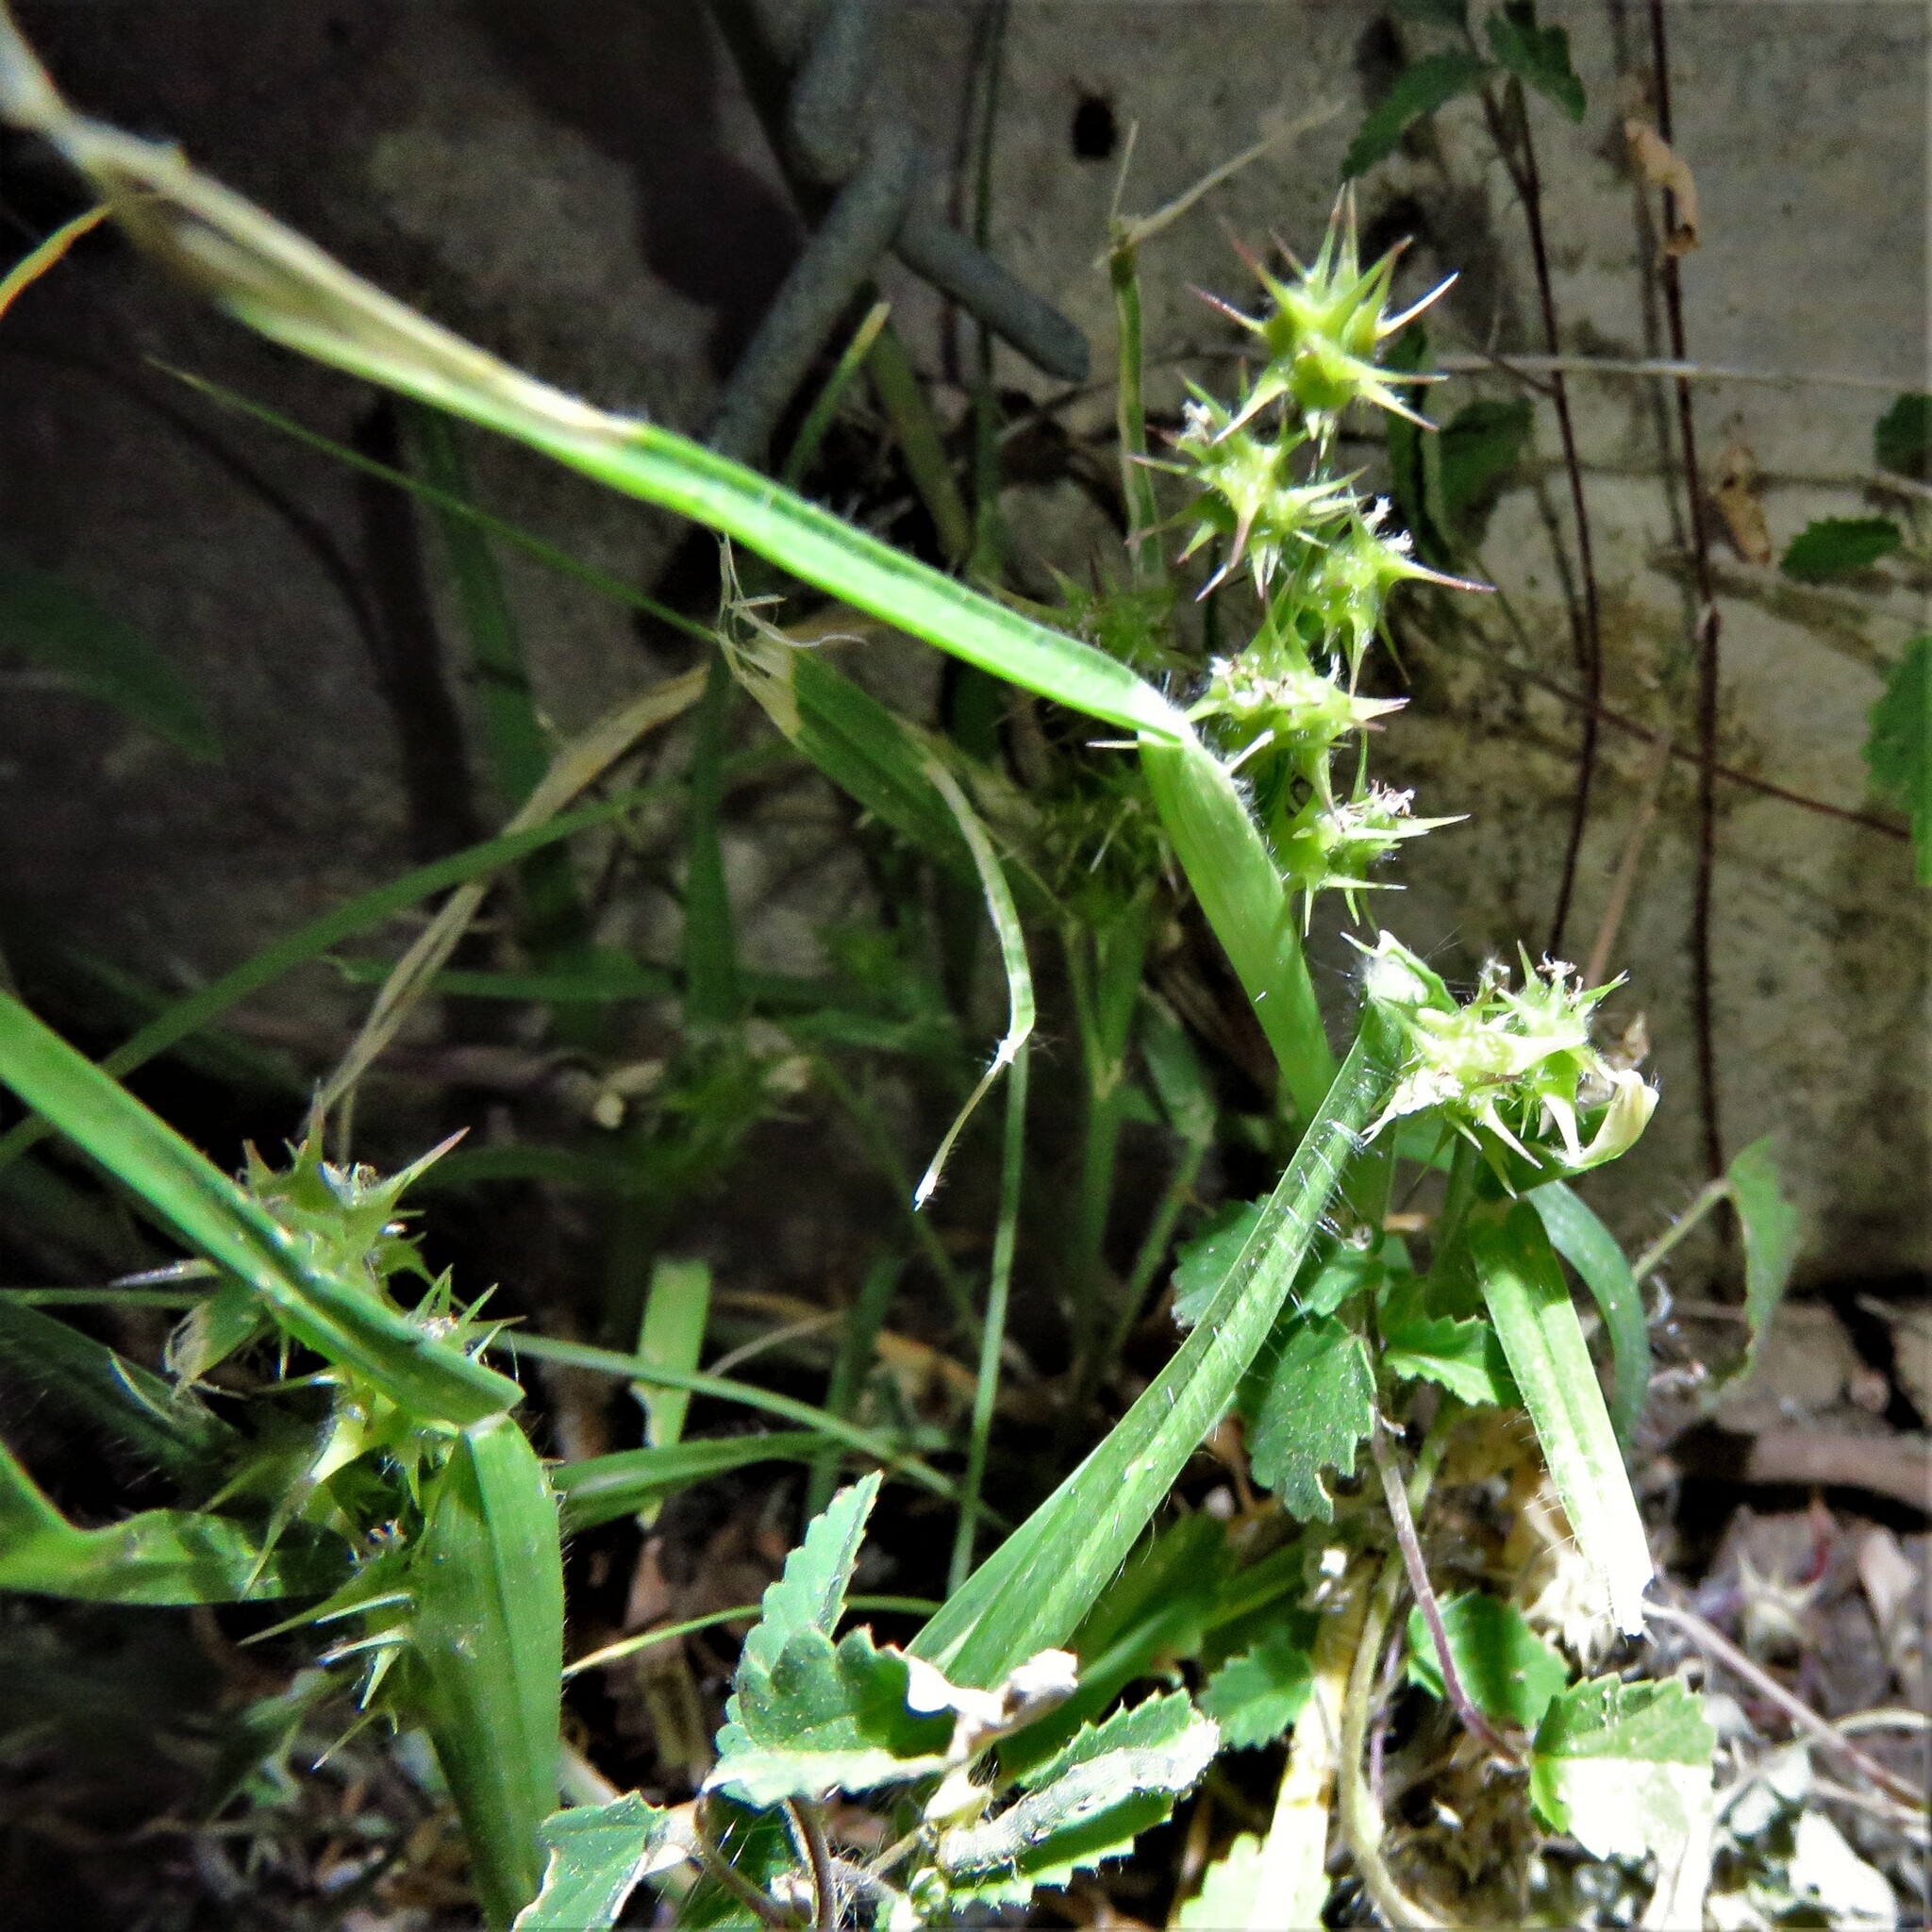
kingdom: Plantae
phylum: Tracheophyta
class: Liliopsida
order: Poales
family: Poaceae
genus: Cenchrus
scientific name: Cenchrus spinifex
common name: Coast sandbur
